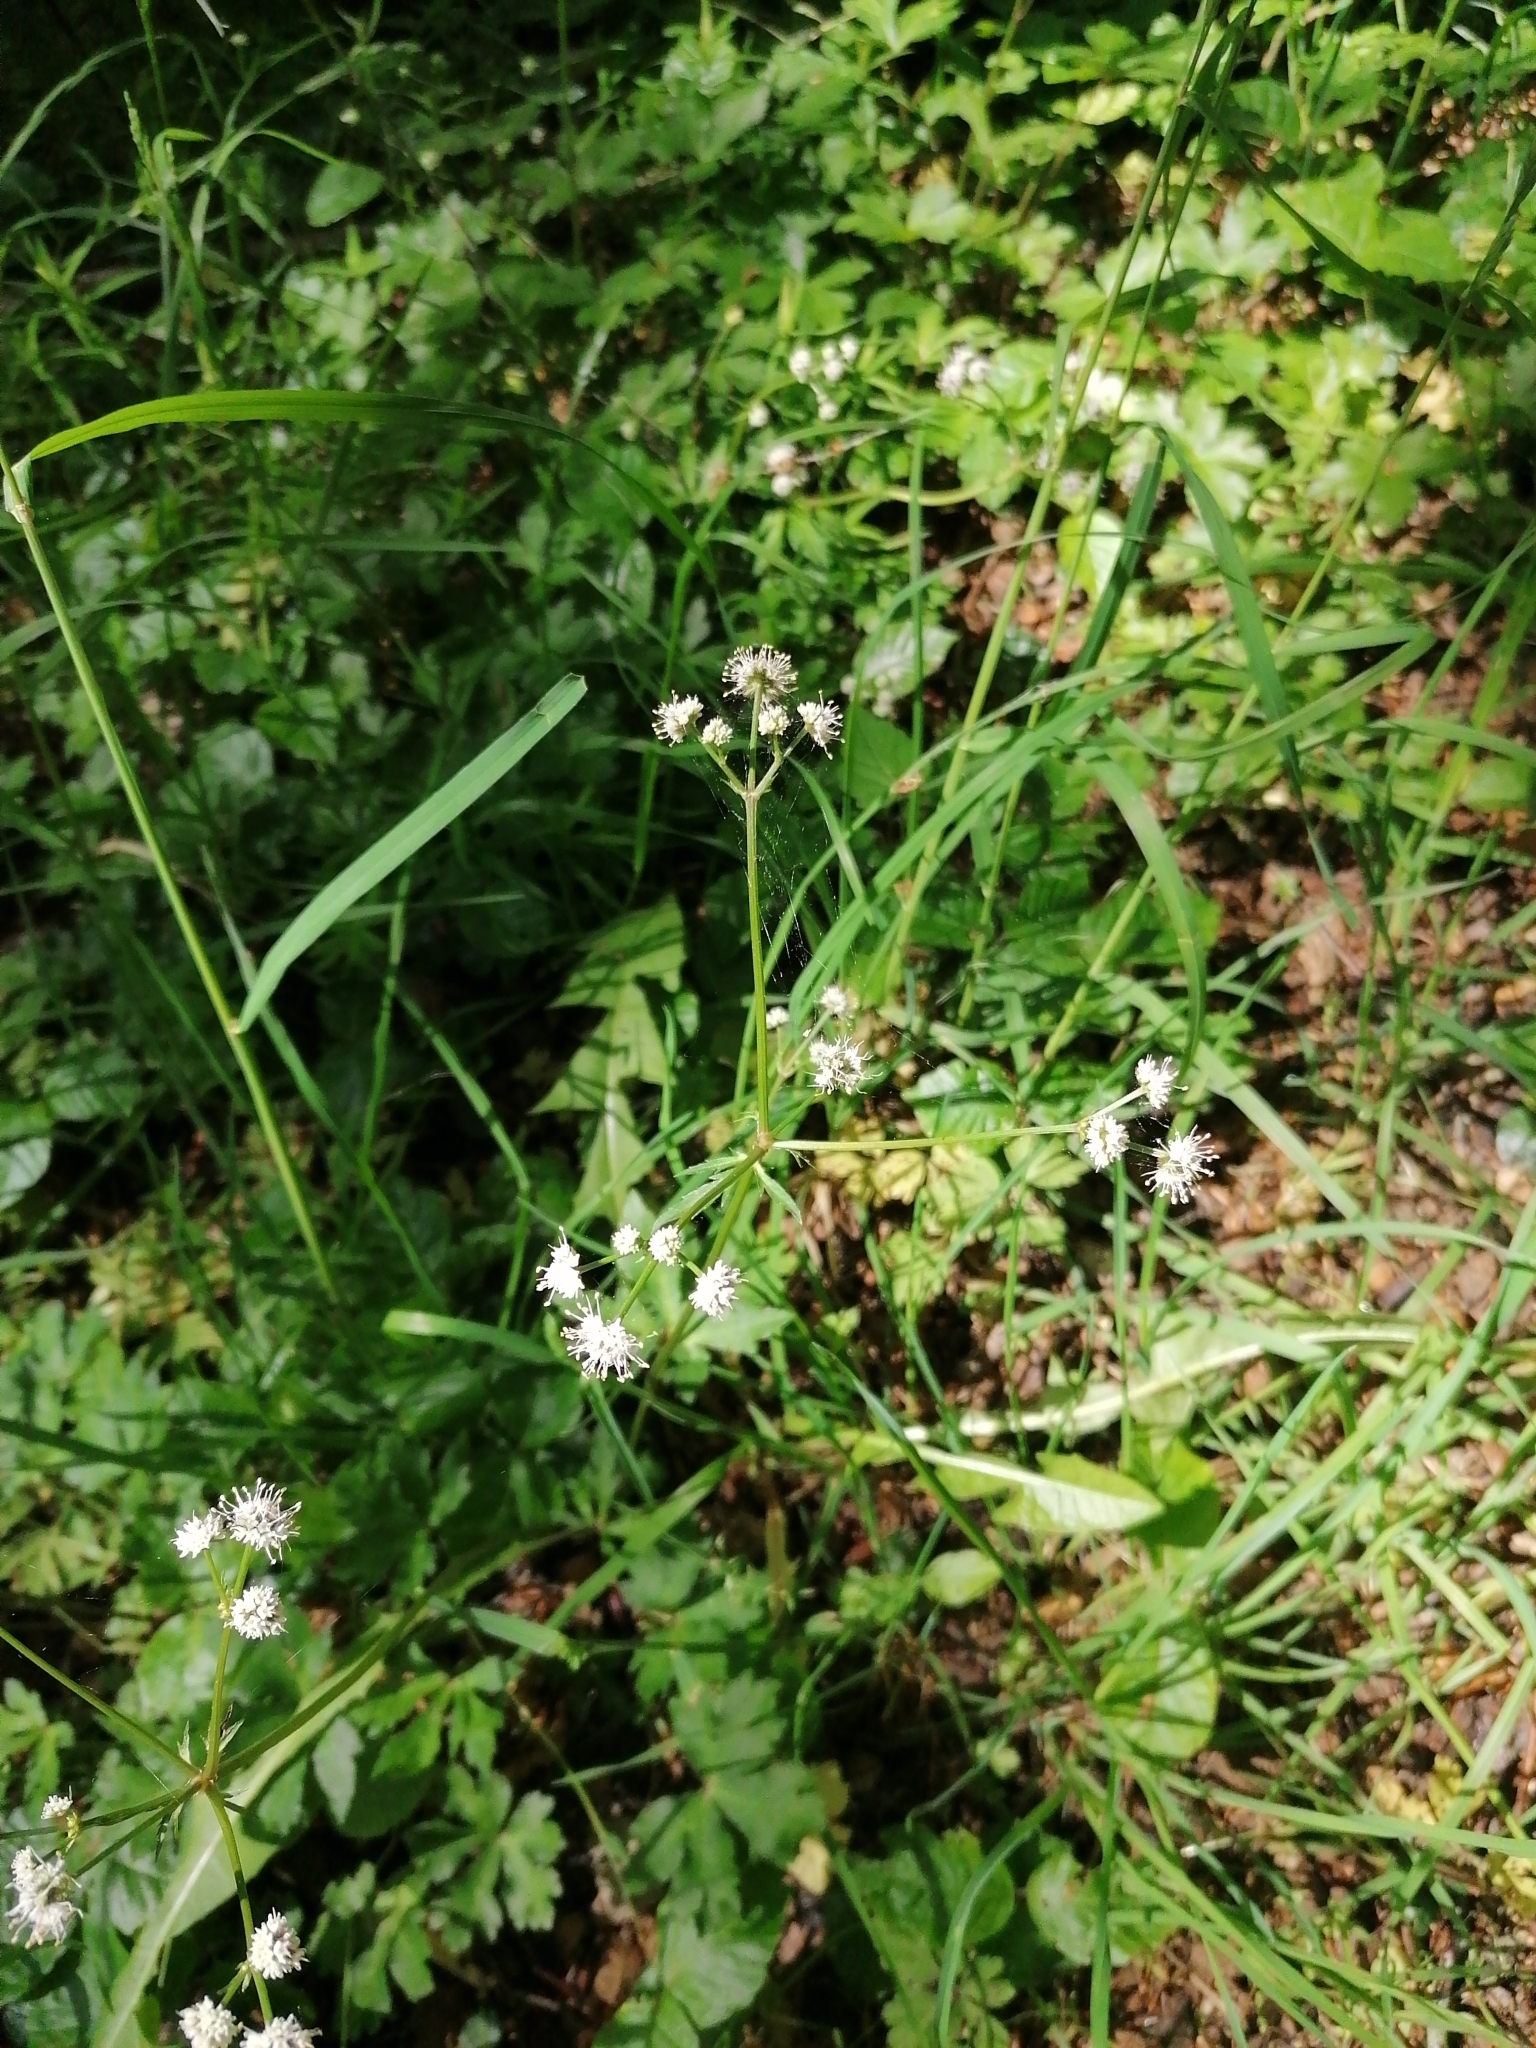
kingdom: Plantae
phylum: Tracheophyta
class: Magnoliopsida
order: Apiales
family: Apiaceae
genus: Sanicula
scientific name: Sanicula europaea
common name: Sanicle
